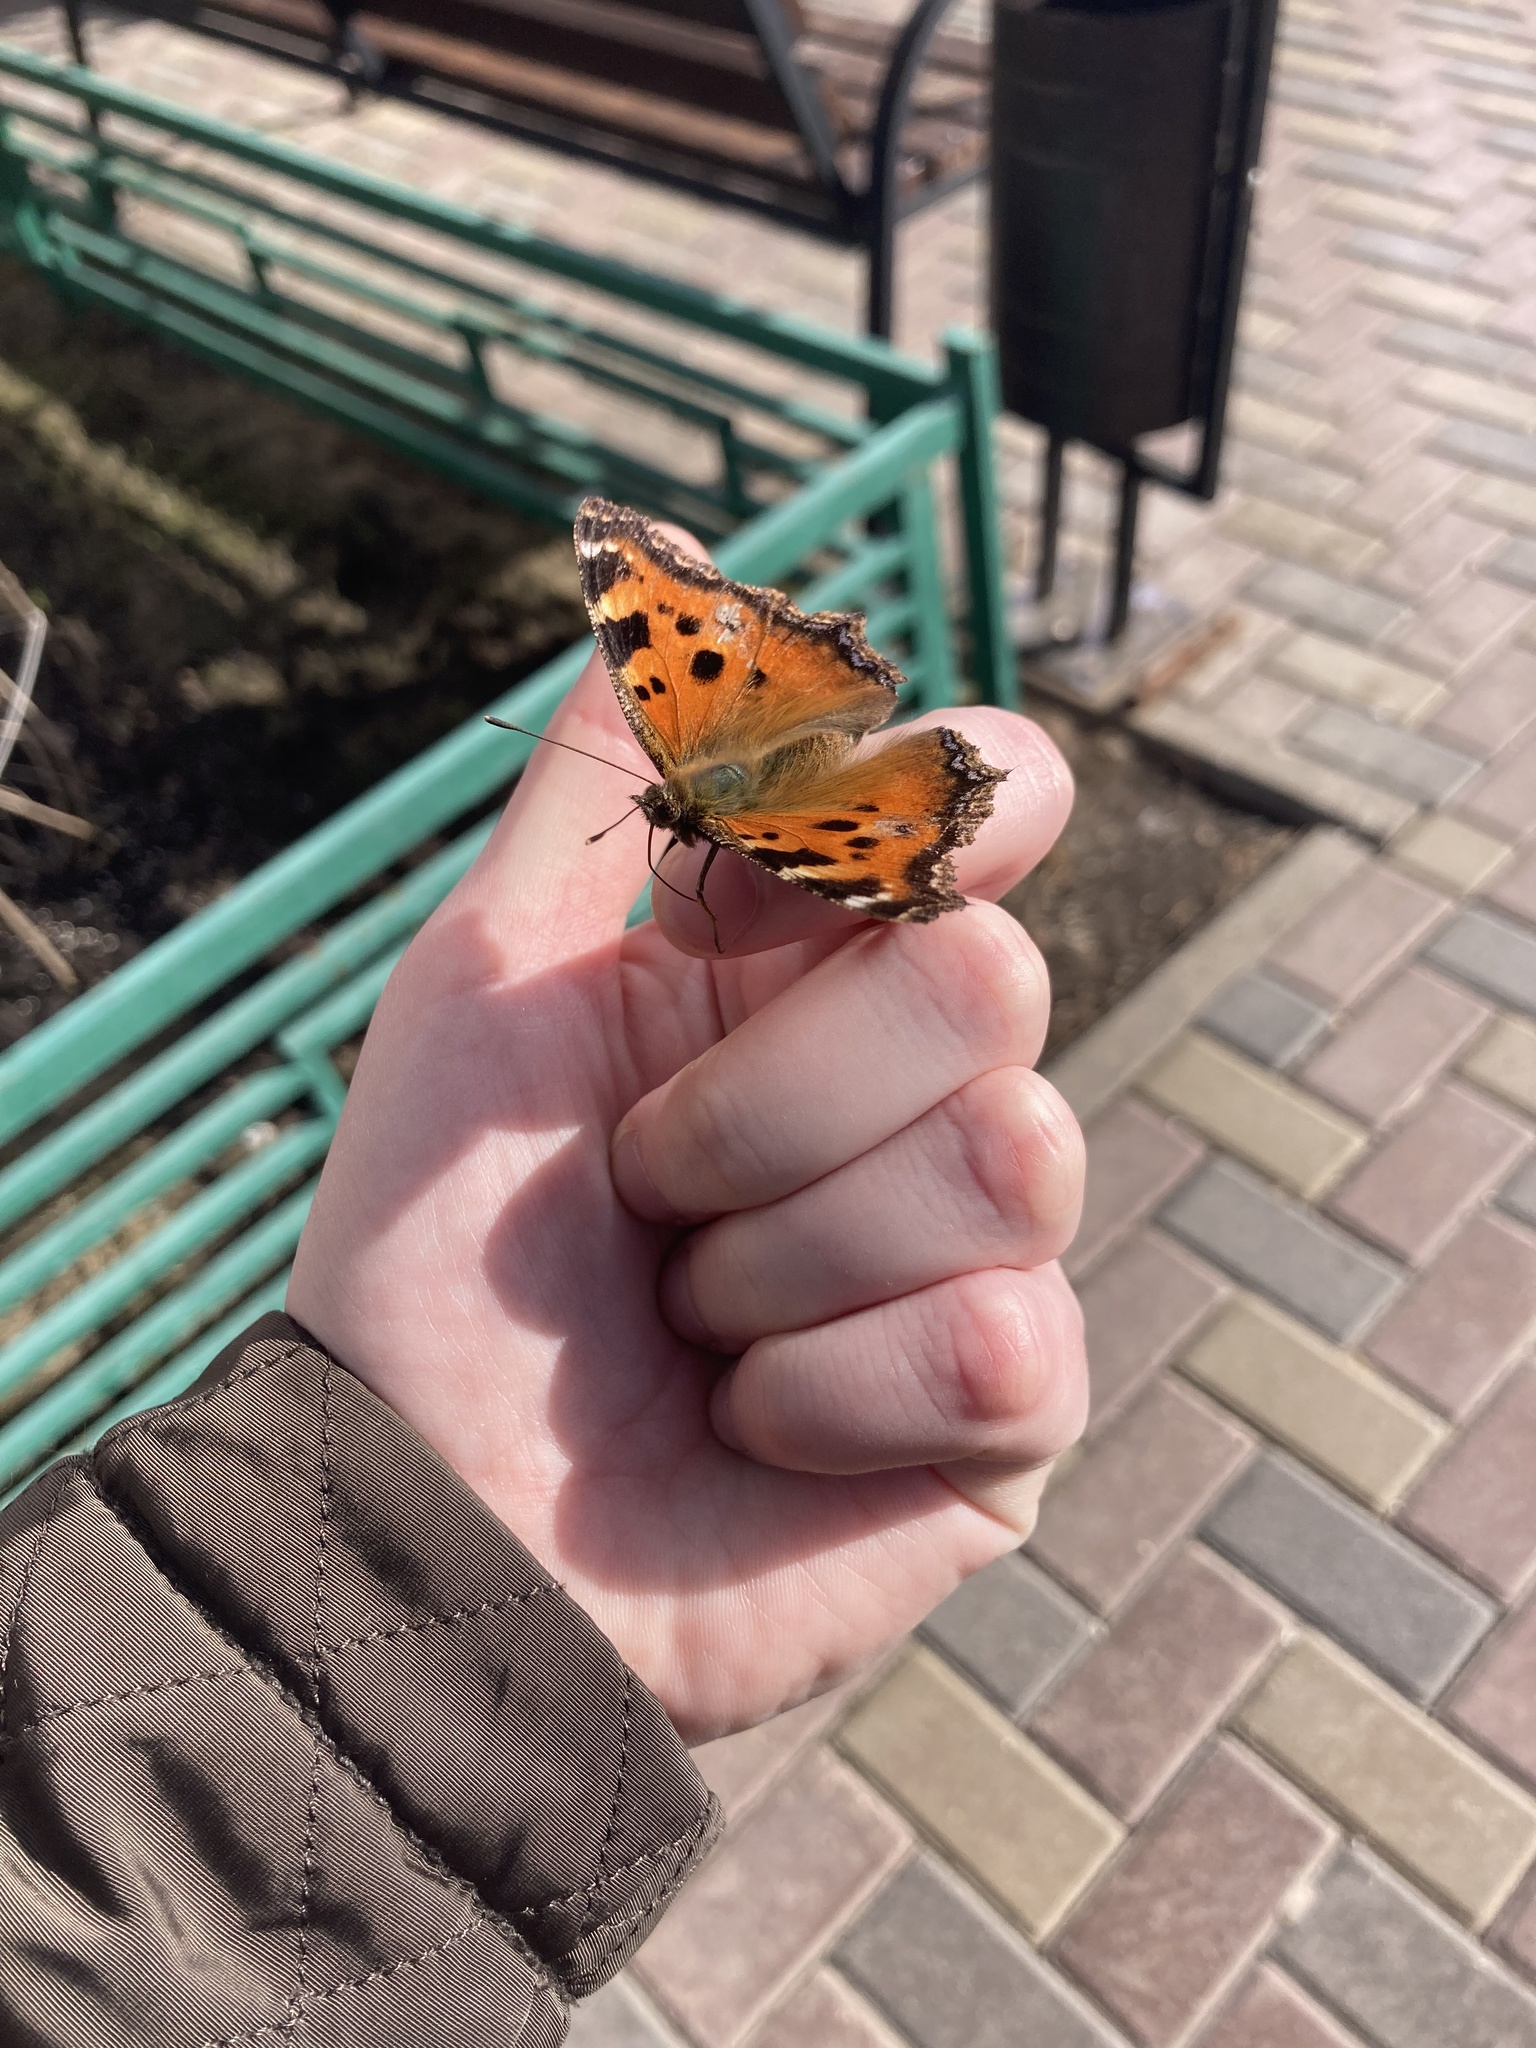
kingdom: Animalia
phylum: Arthropoda
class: Insecta
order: Lepidoptera
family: Nymphalidae
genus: Nymphalis
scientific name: Nymphalis xanthomelas
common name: Scarce tortoiseshell
